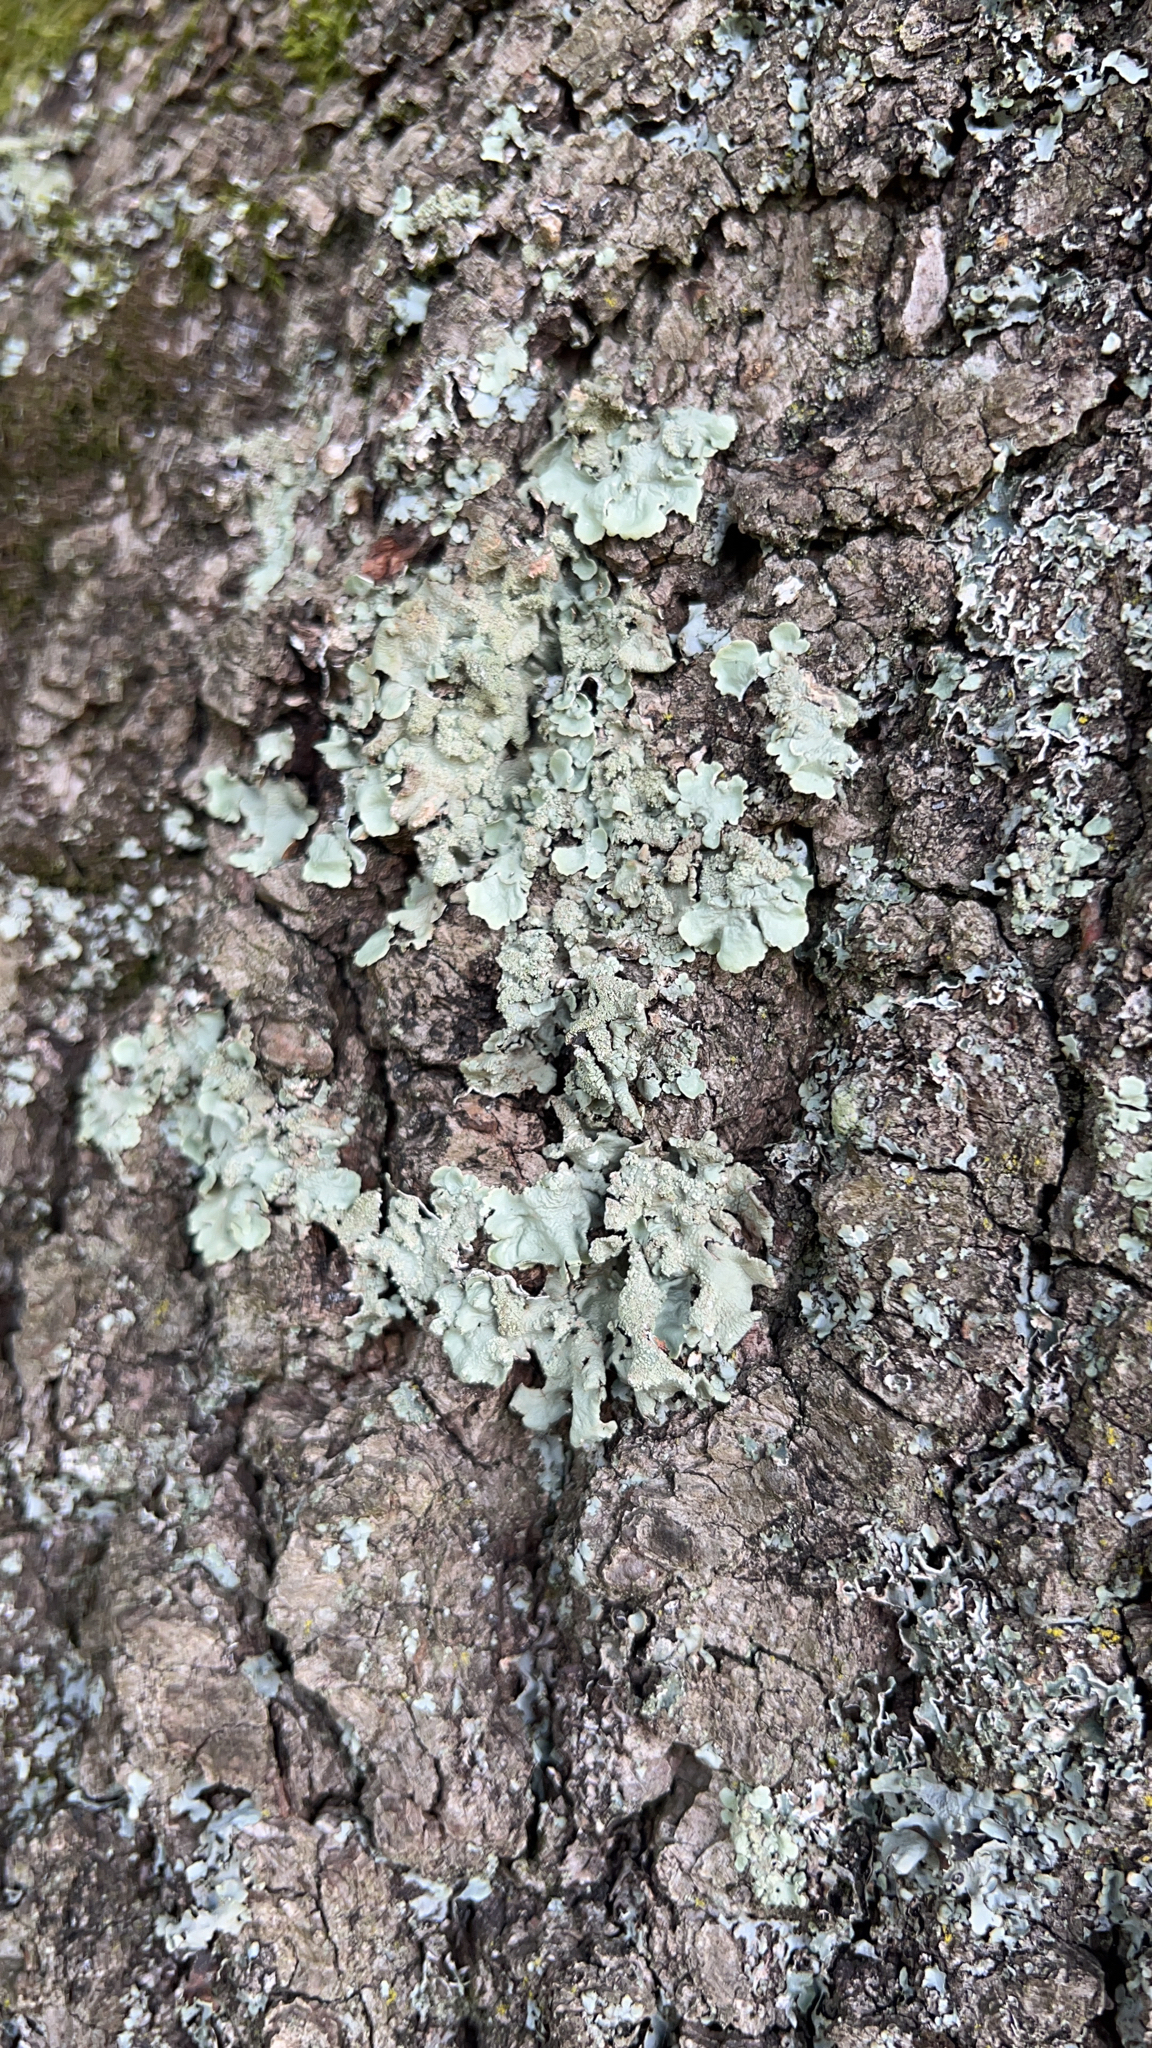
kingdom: Fungi
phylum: Ascomycota
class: Lecanoromycetes
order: Lecanorales
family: Parmeliaceae
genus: Flavoparmelia
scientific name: Flavoparmelia caperata
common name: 40-mile per hour lichen
